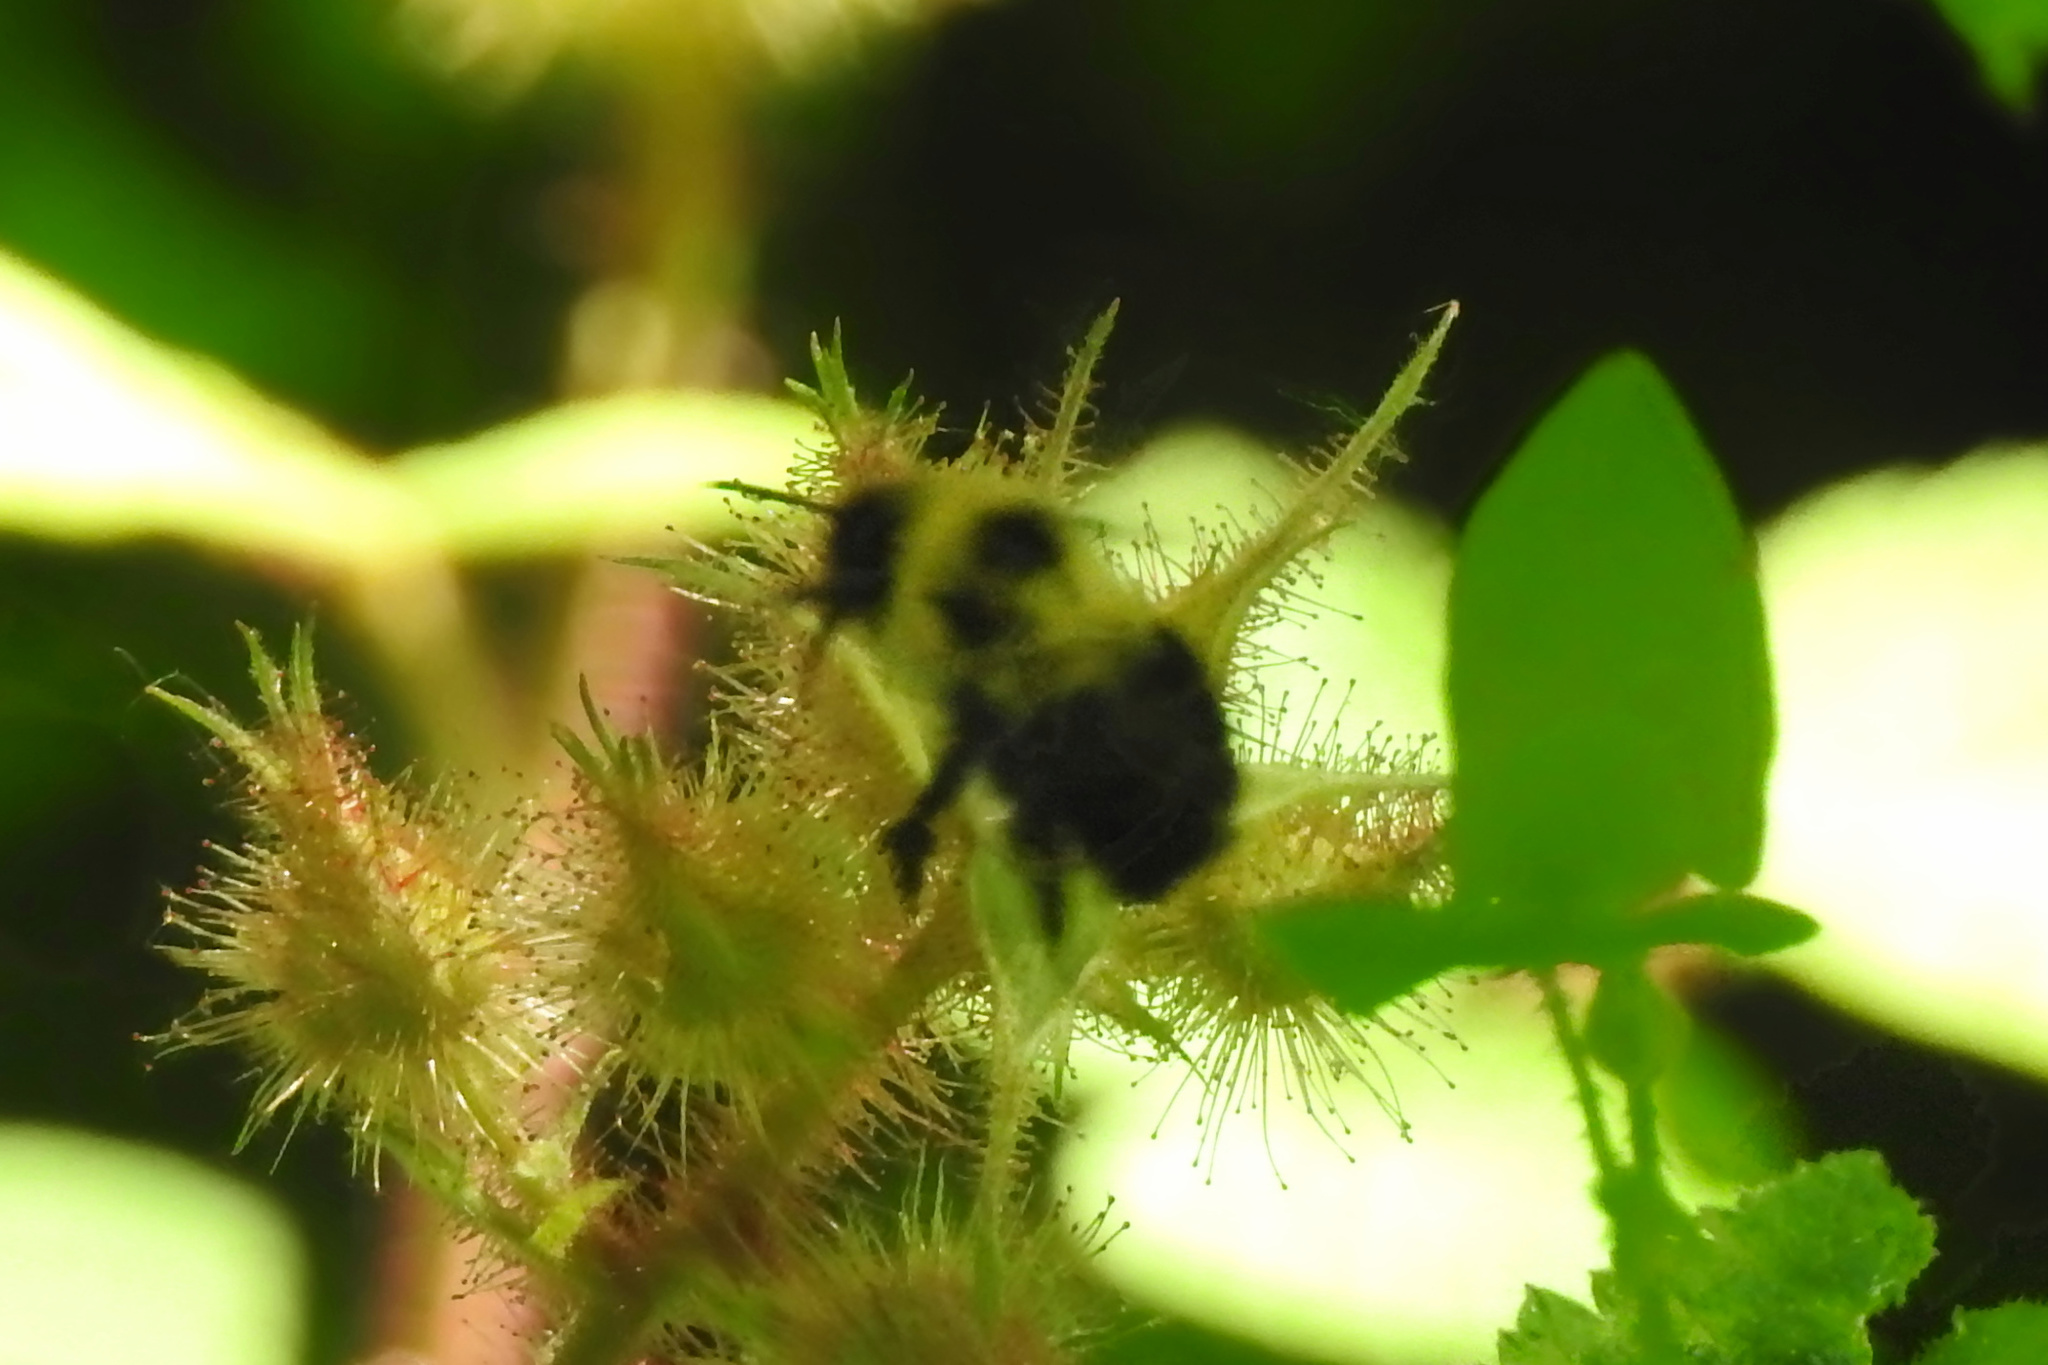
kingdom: Animalia
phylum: Arthropoda
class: Insecta
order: Hymenoptera
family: Apidae
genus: Bombus
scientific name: Bombus bimaculatus
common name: Two-spotted bumble bee
